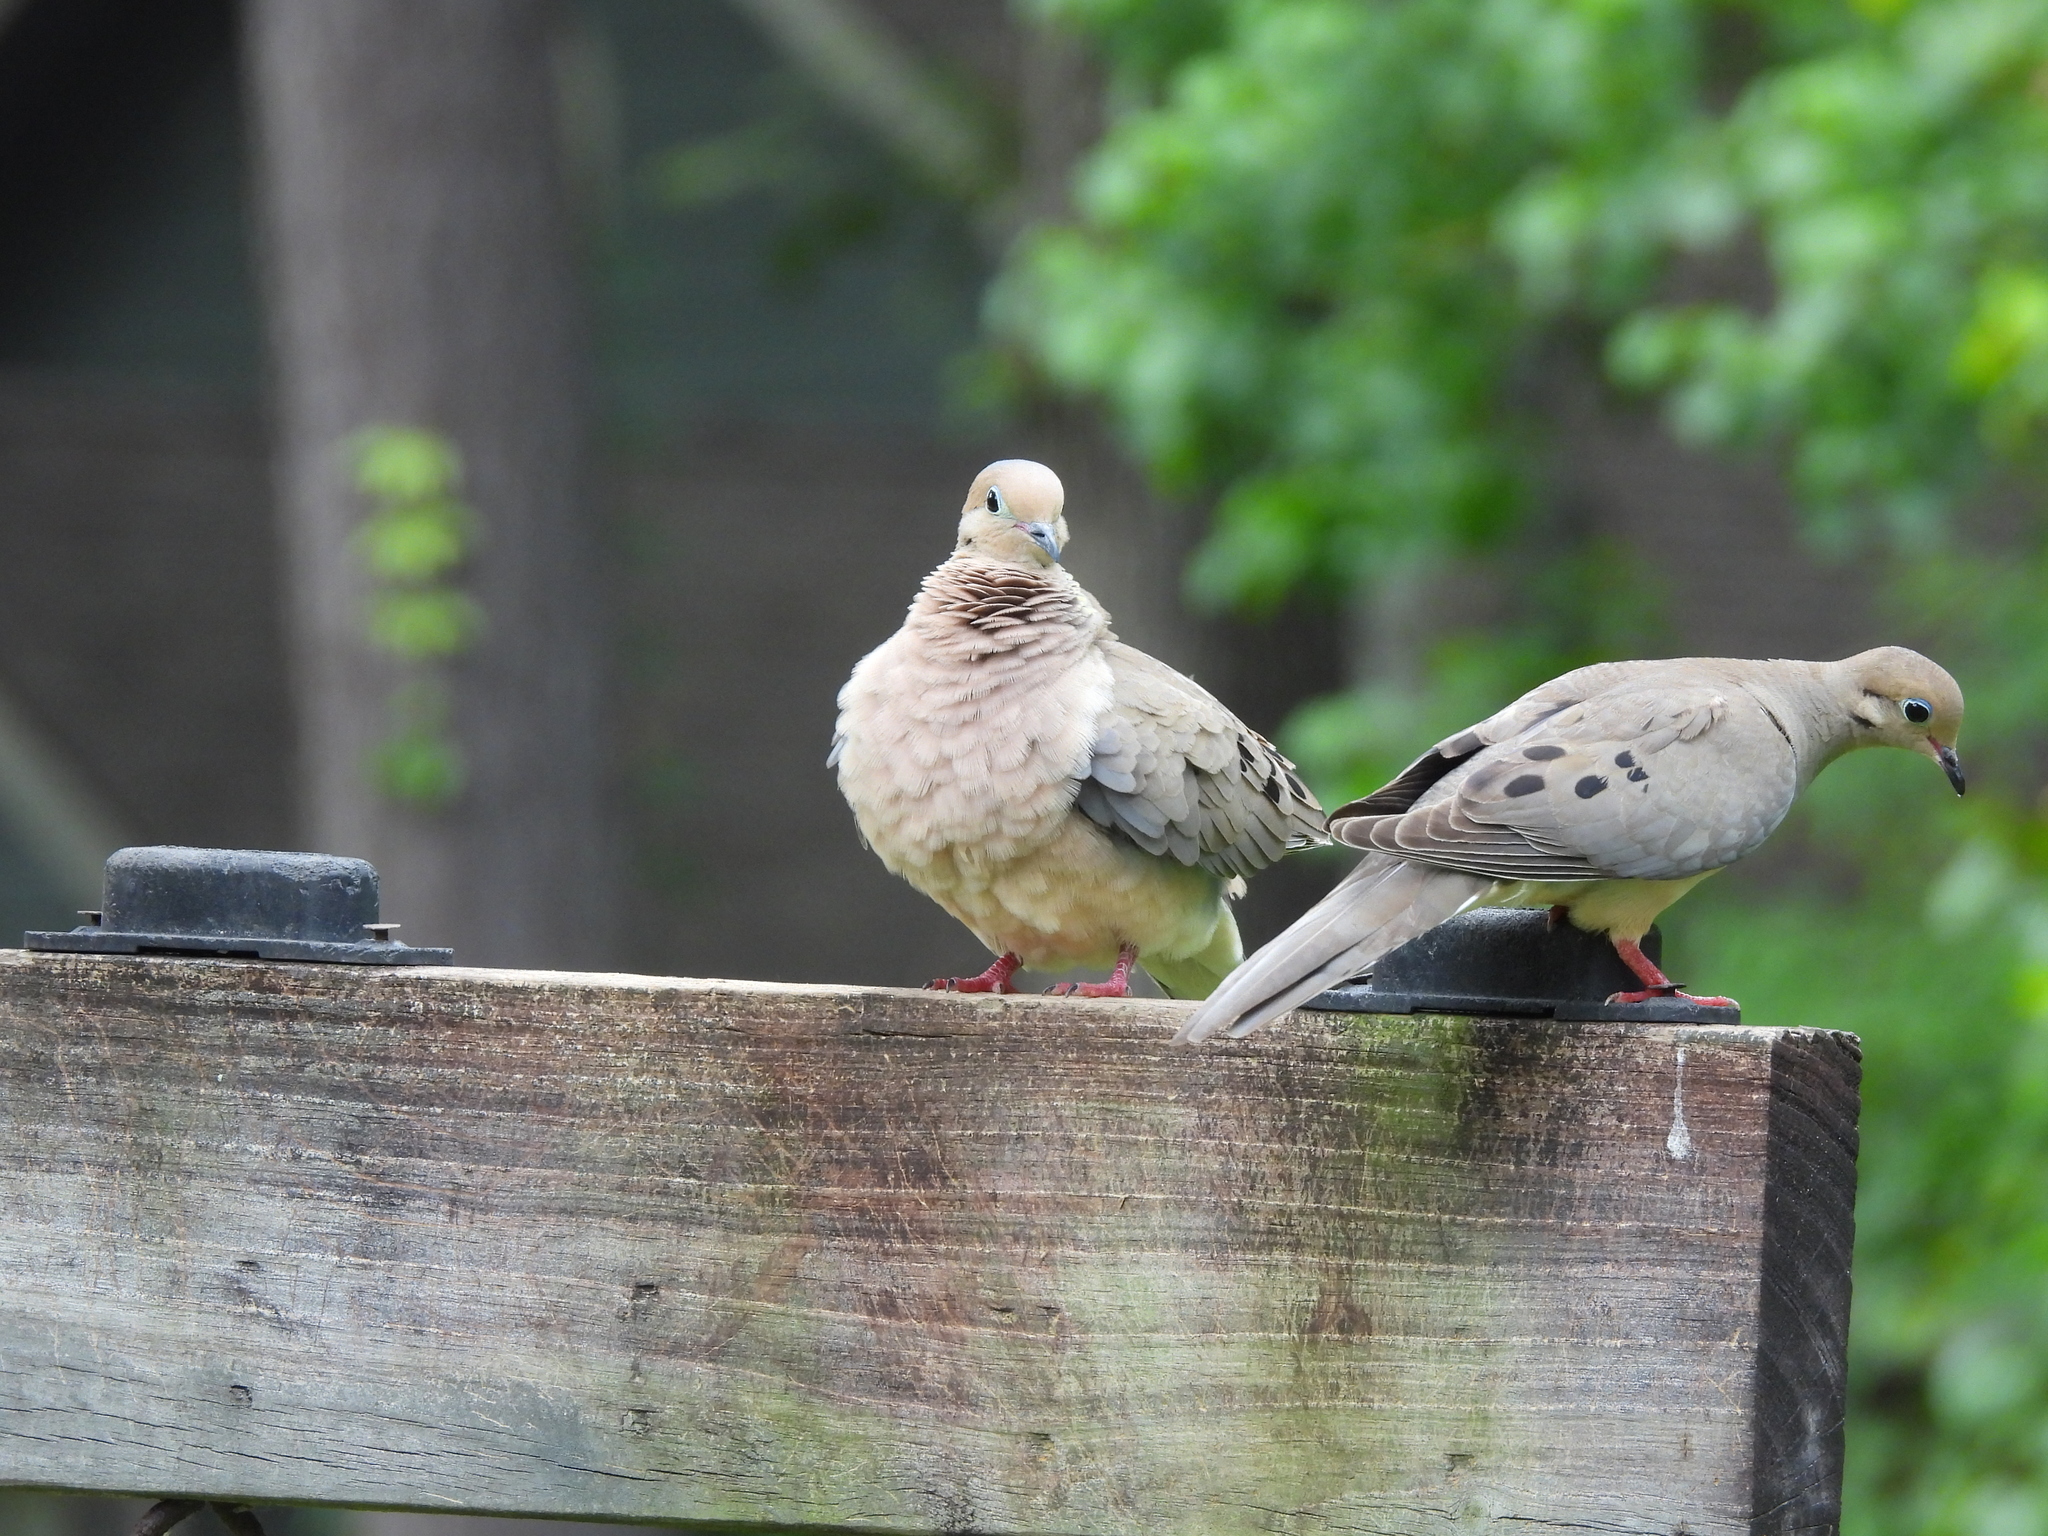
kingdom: Animalia
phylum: Chordata
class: Aves
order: Columbiformes
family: Columbidae
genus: Zenaida
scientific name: Zenaida macroura
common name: Mourning dove
